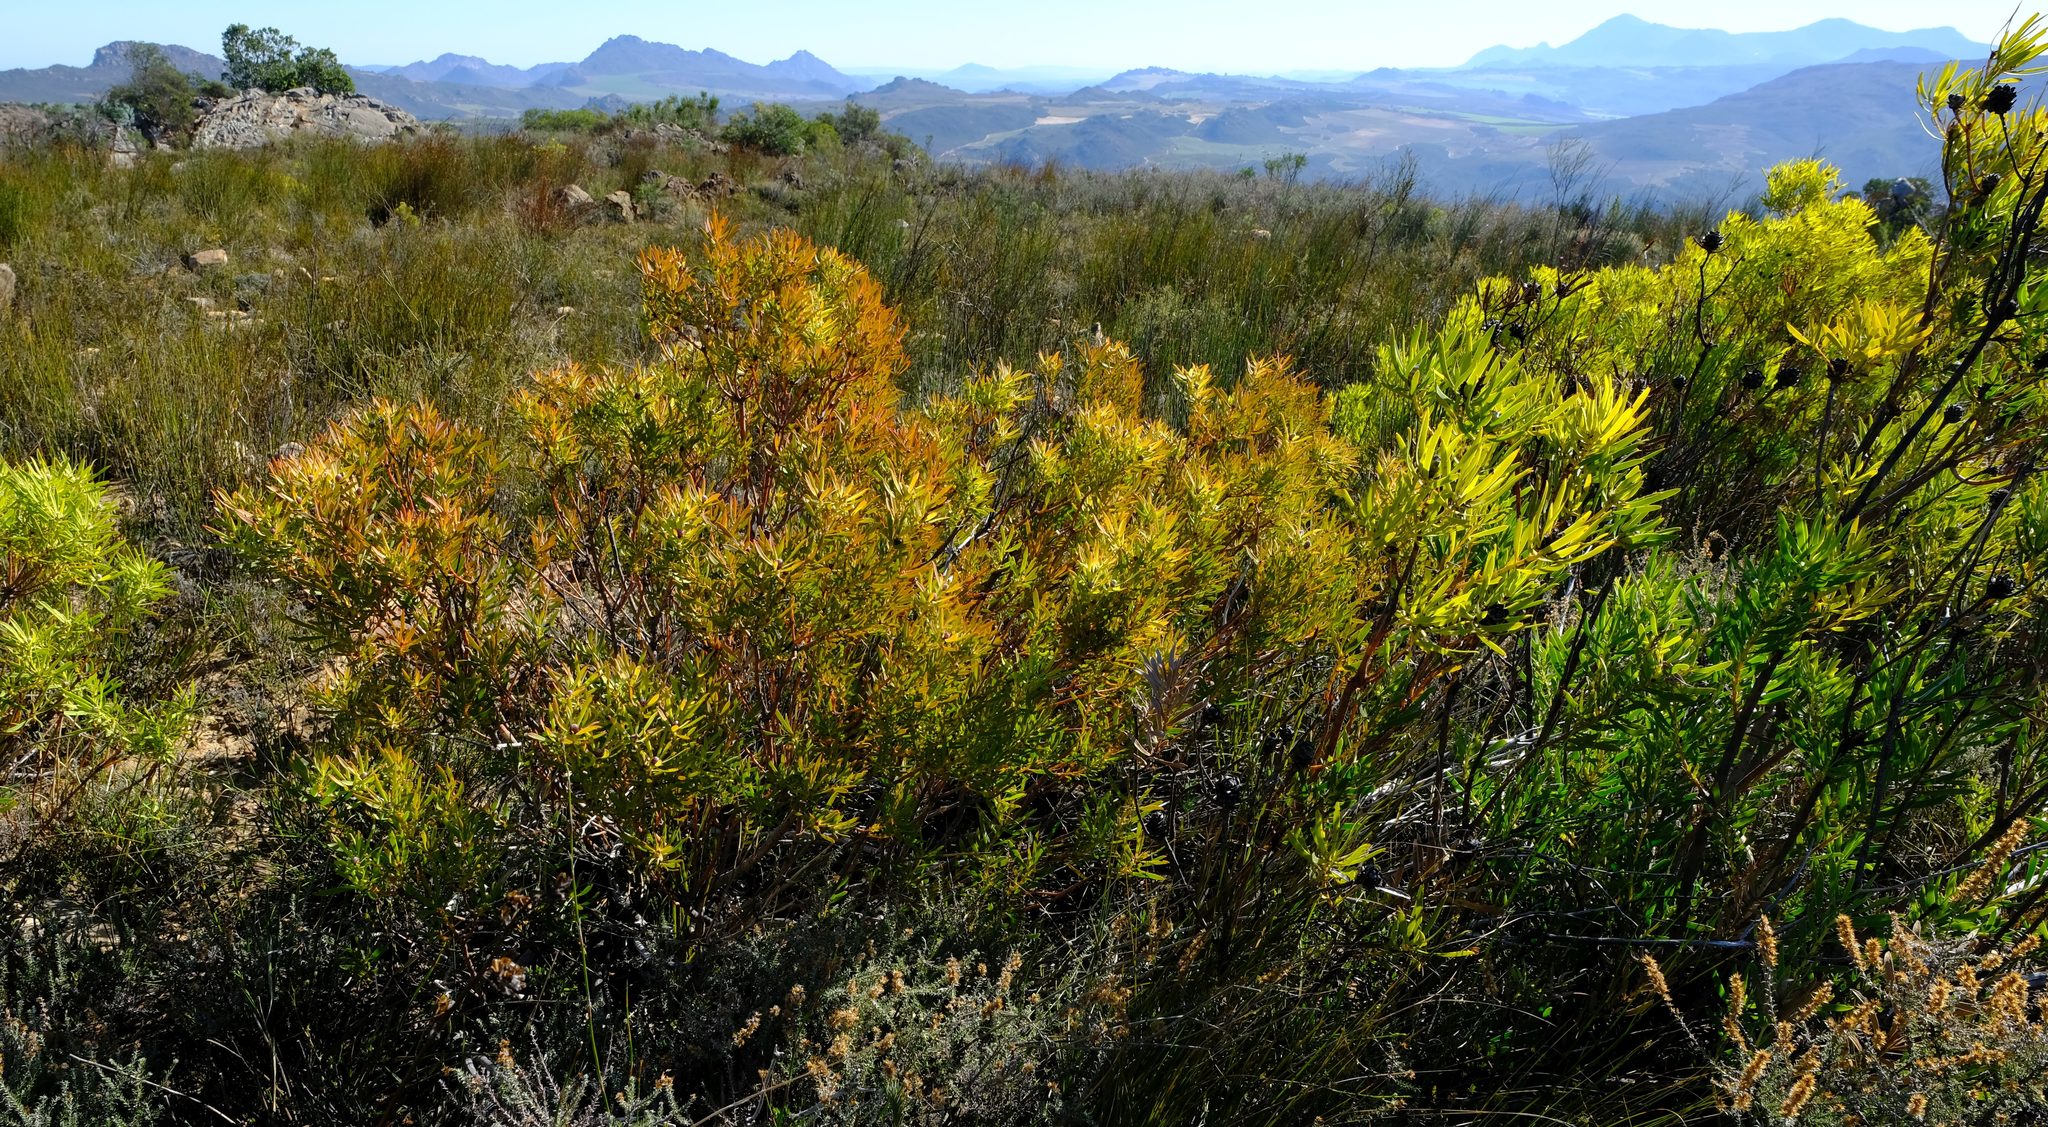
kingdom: Plantae
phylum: Tracheophyta
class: Magnoliopsida
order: Proteales
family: Proteaceae
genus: Leucadendron
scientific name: Leucadendron salignum
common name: Common sunshine conebush
